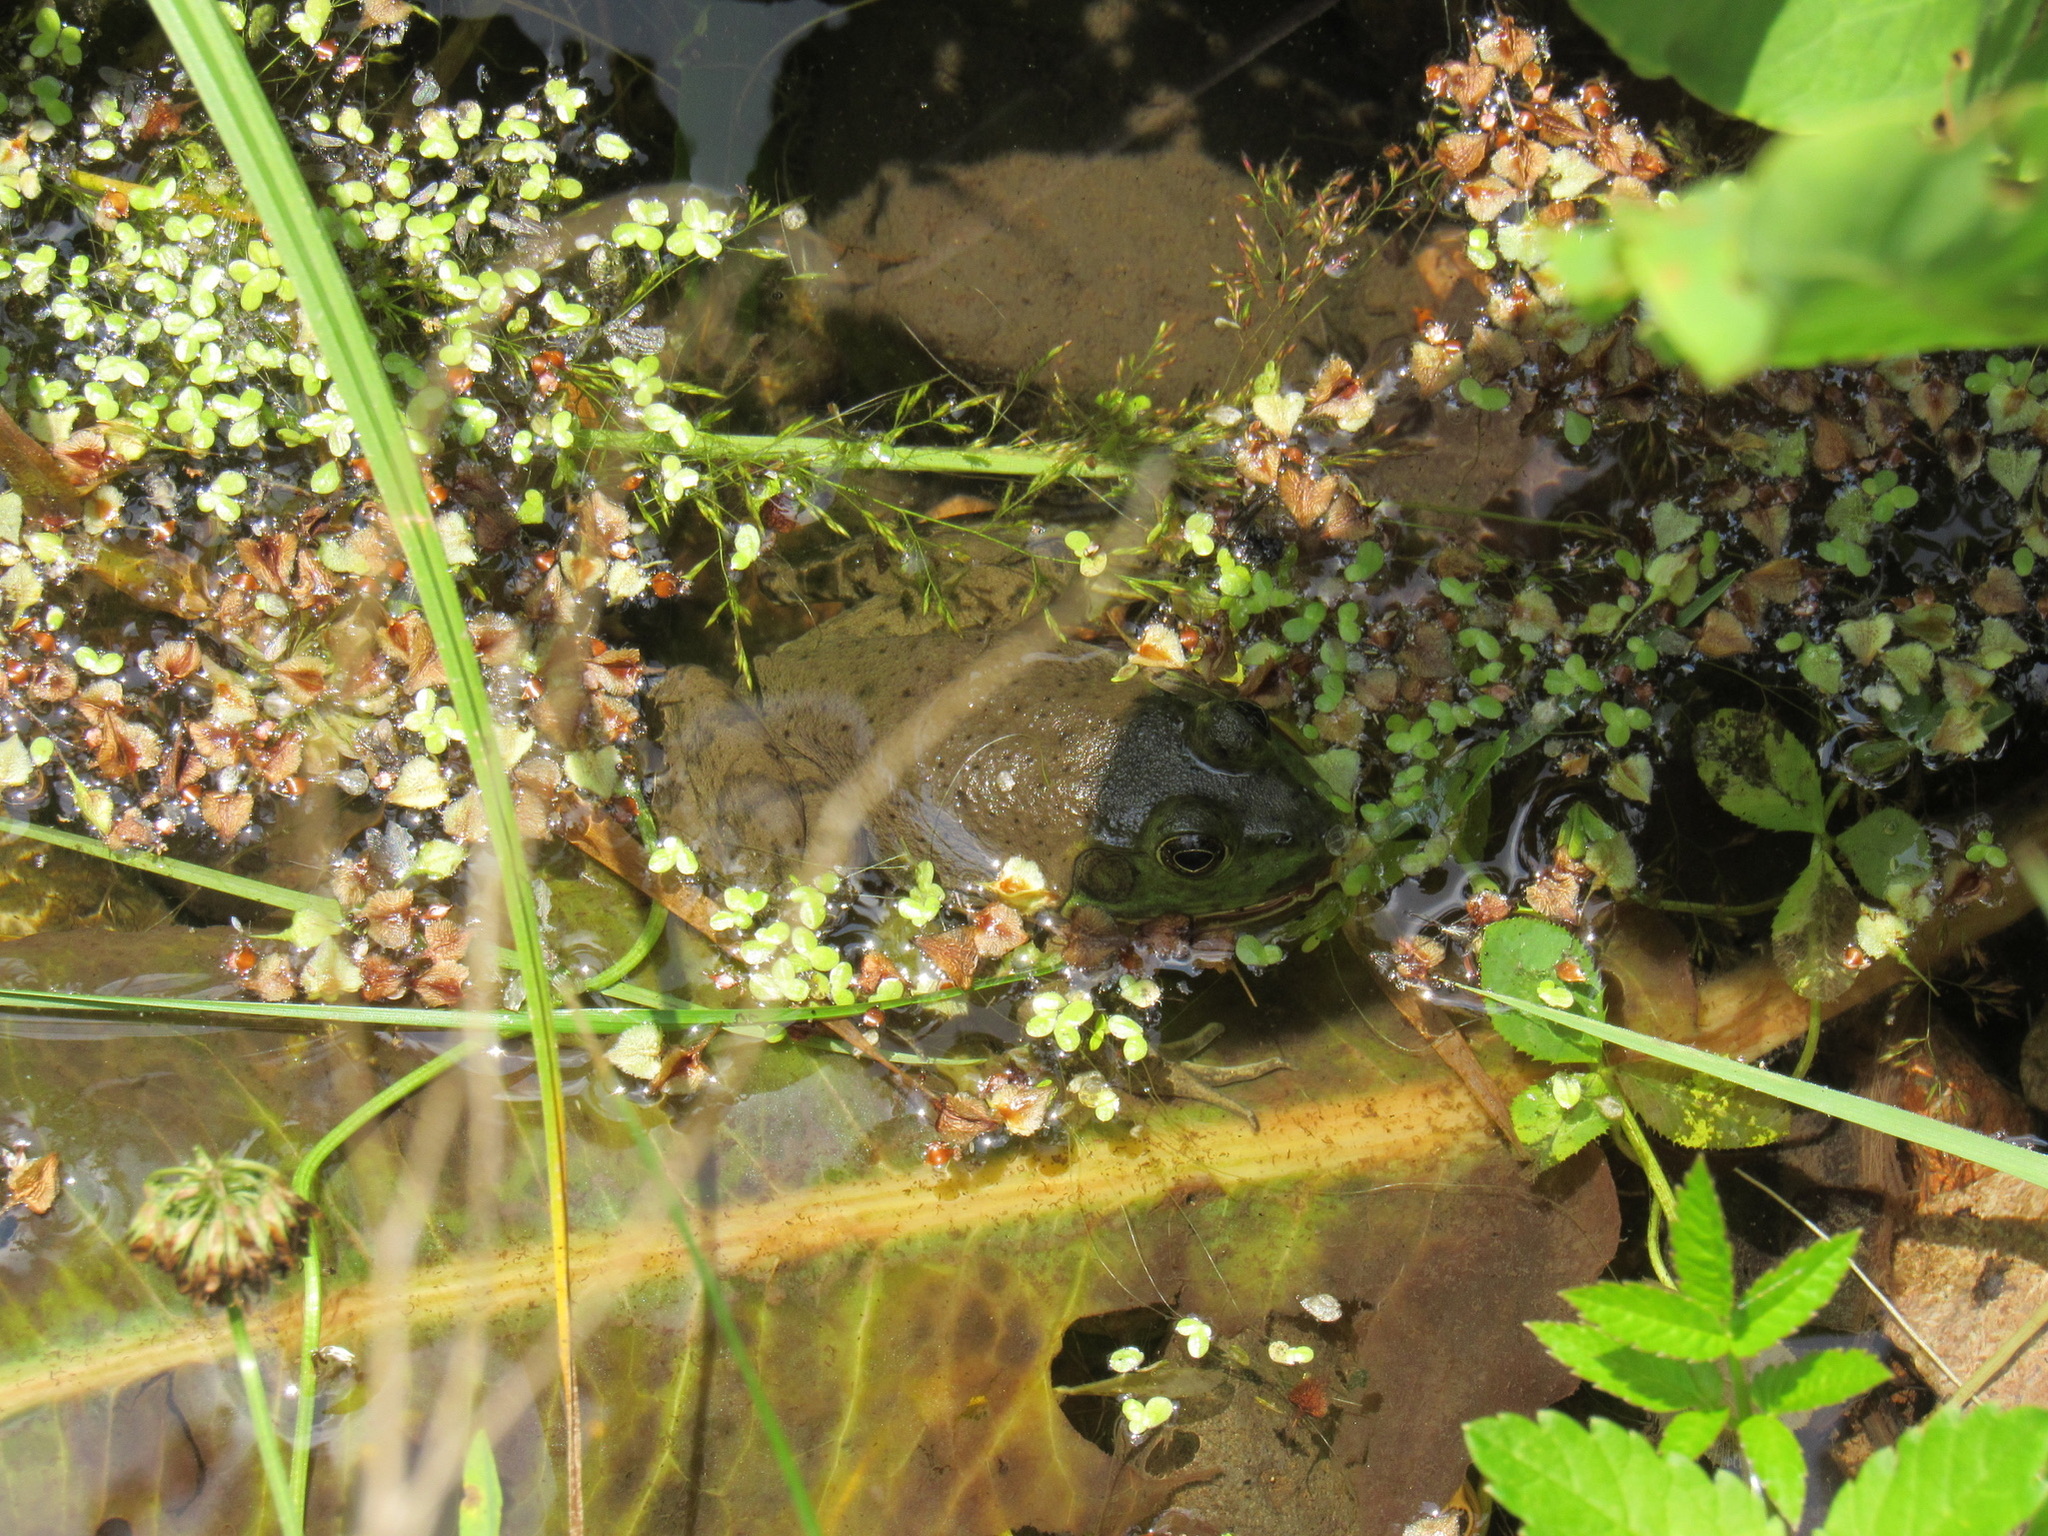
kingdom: Animalia
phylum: Chordata
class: Amphibia
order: Anura
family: Ranidae
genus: Lithobates
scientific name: Lithobates catesbeianus
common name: American bullfrog
